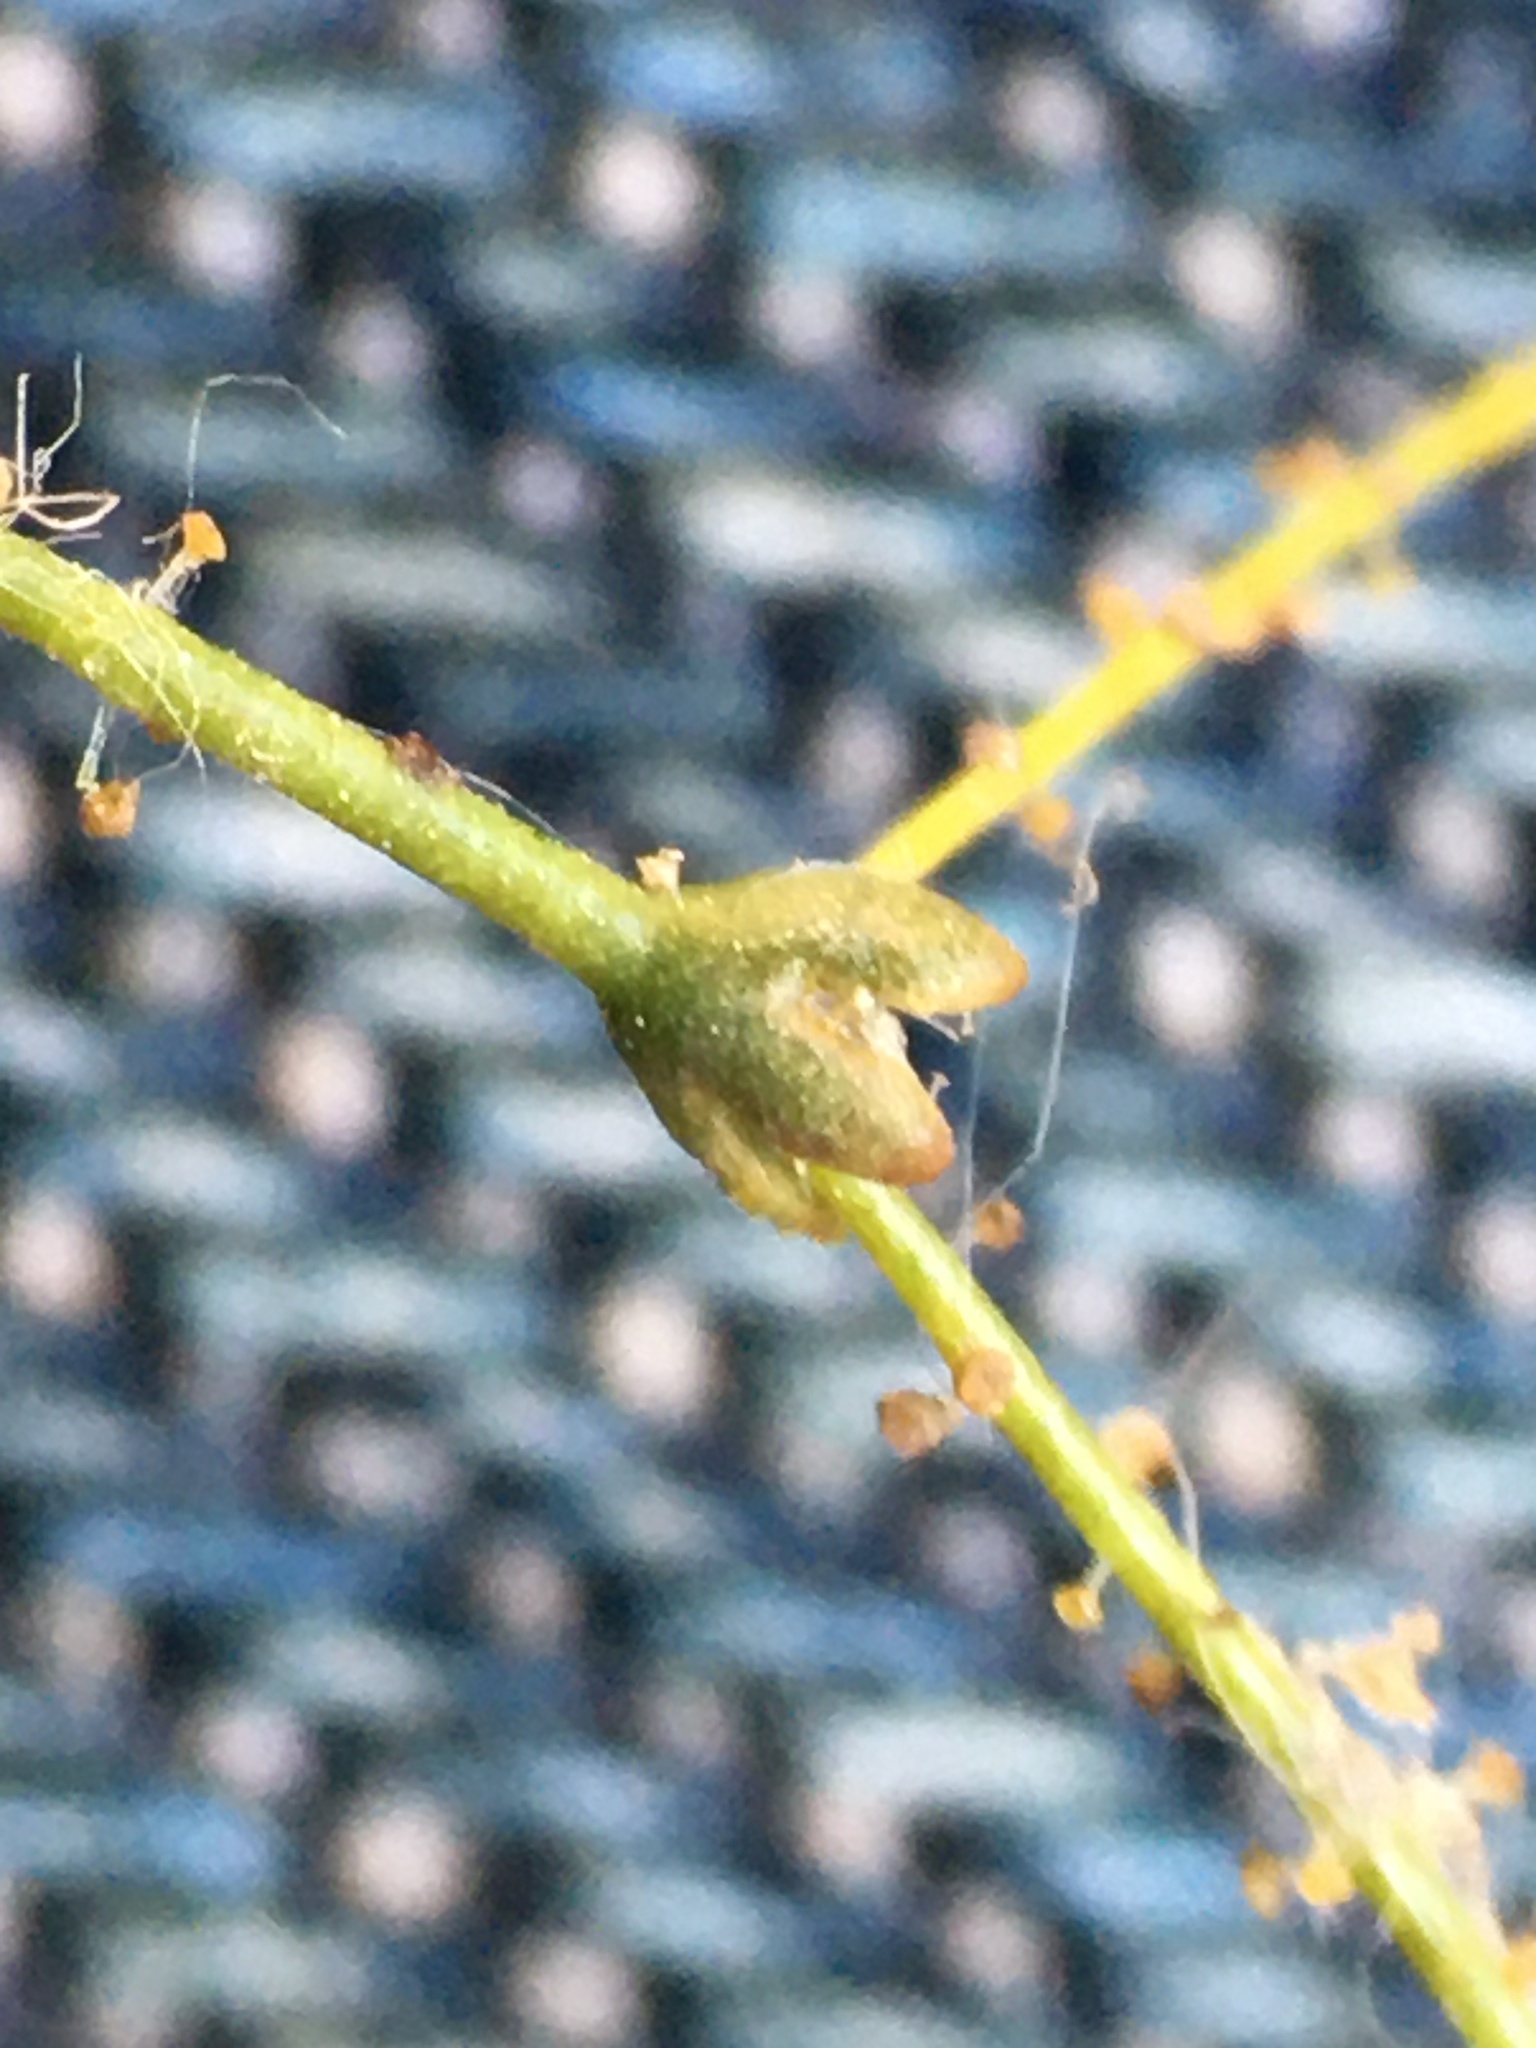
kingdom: Plantae
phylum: Tracheophyta
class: Magnoliopsida
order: Caryophyllales
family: Polygonaceae
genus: Eriogonum
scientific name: Eriogonum glandulosum
